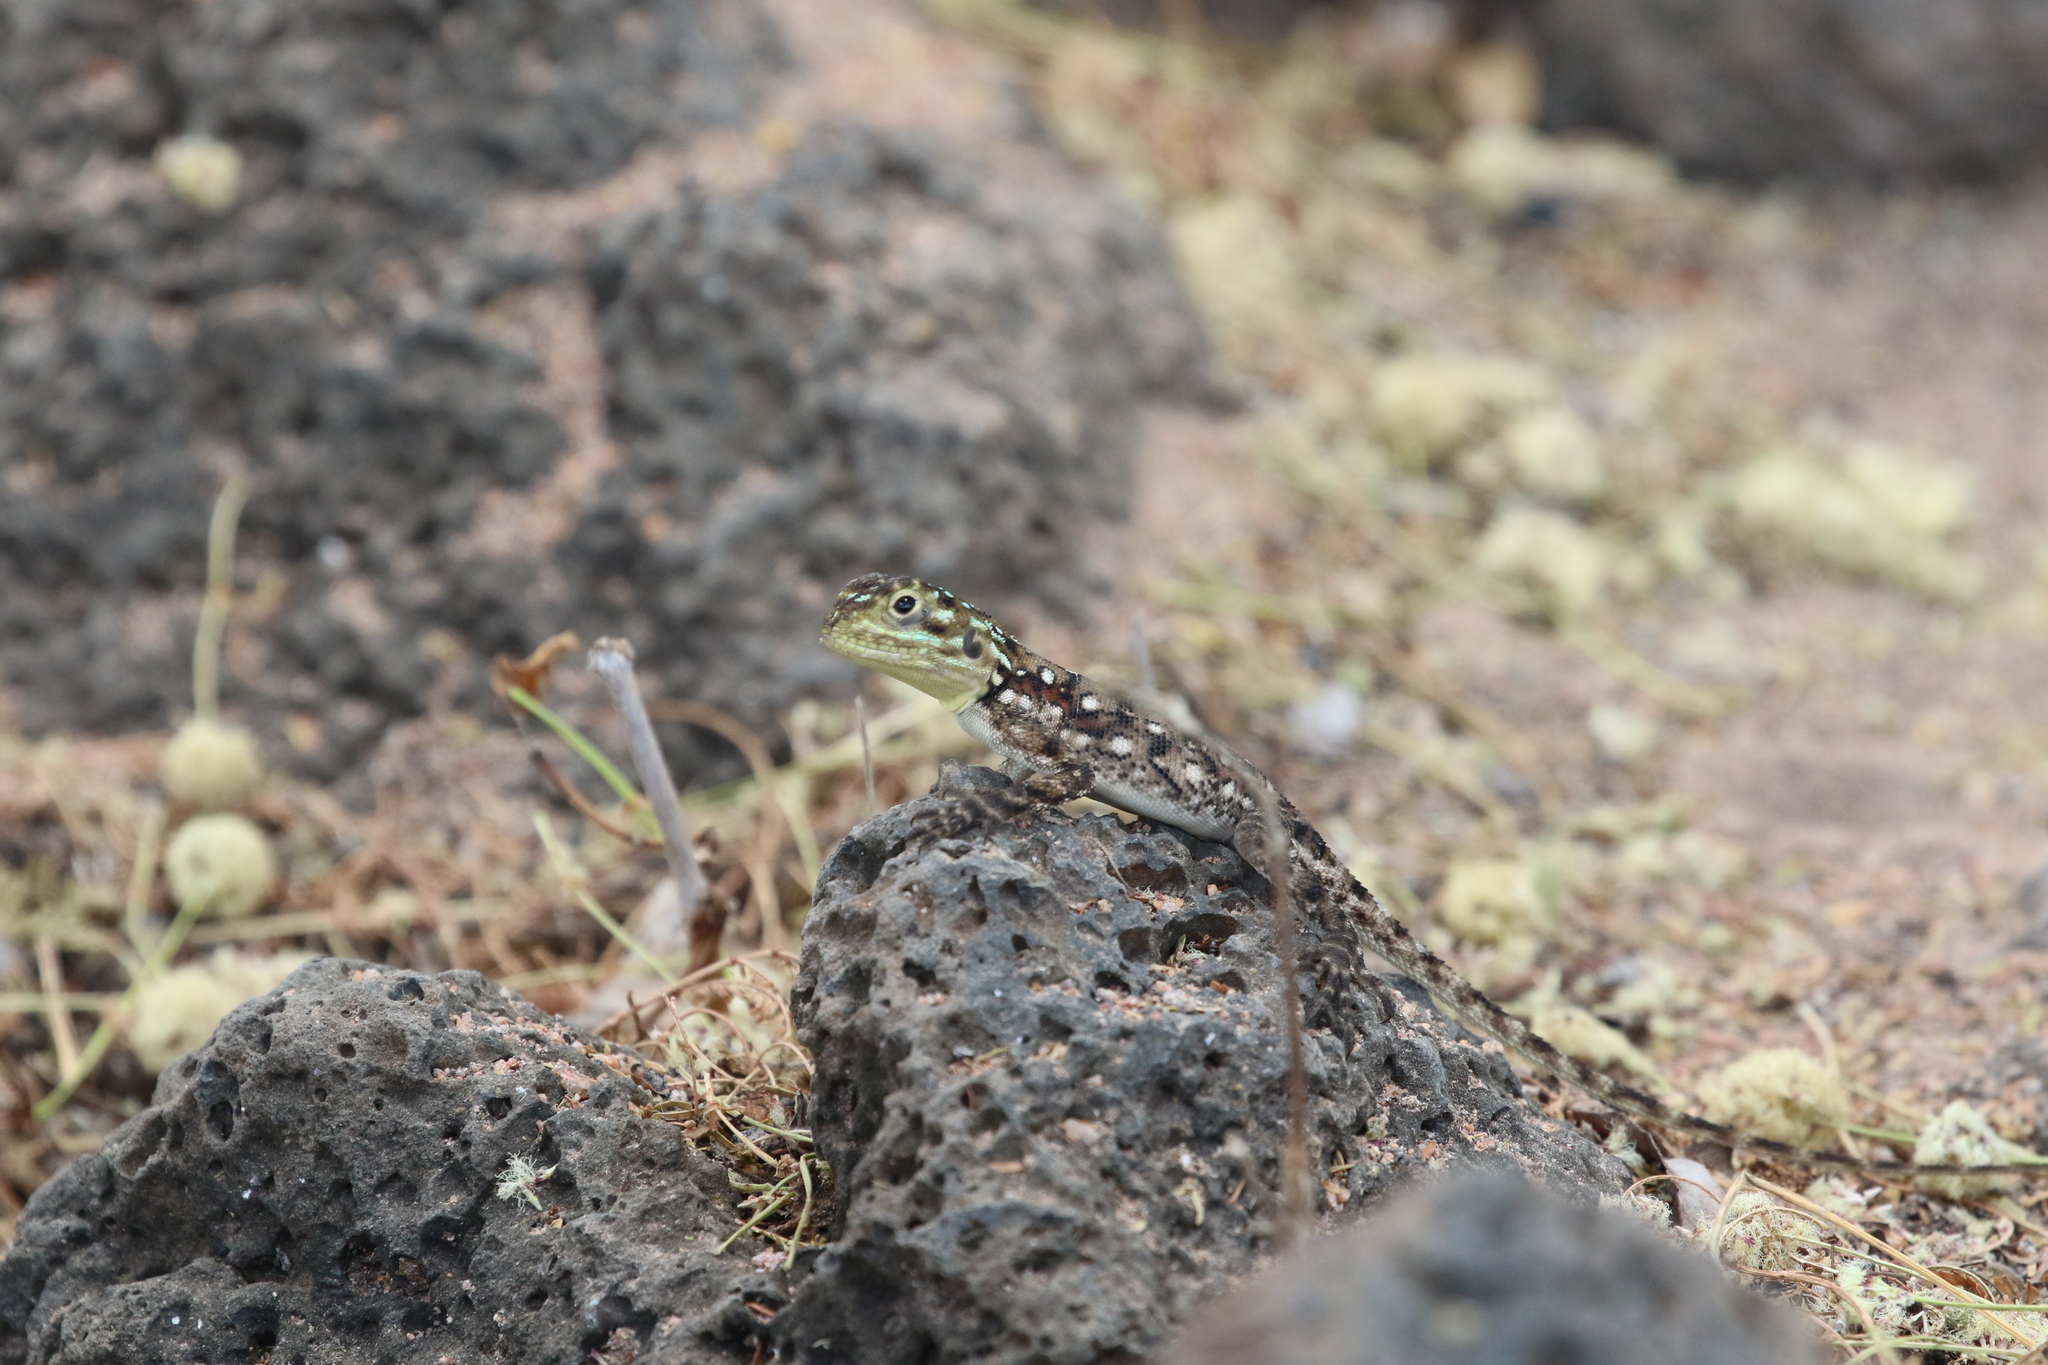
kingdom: Animalia
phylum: Chordata
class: Squamata
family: Agamidae
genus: Agama
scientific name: Agama lionotus
